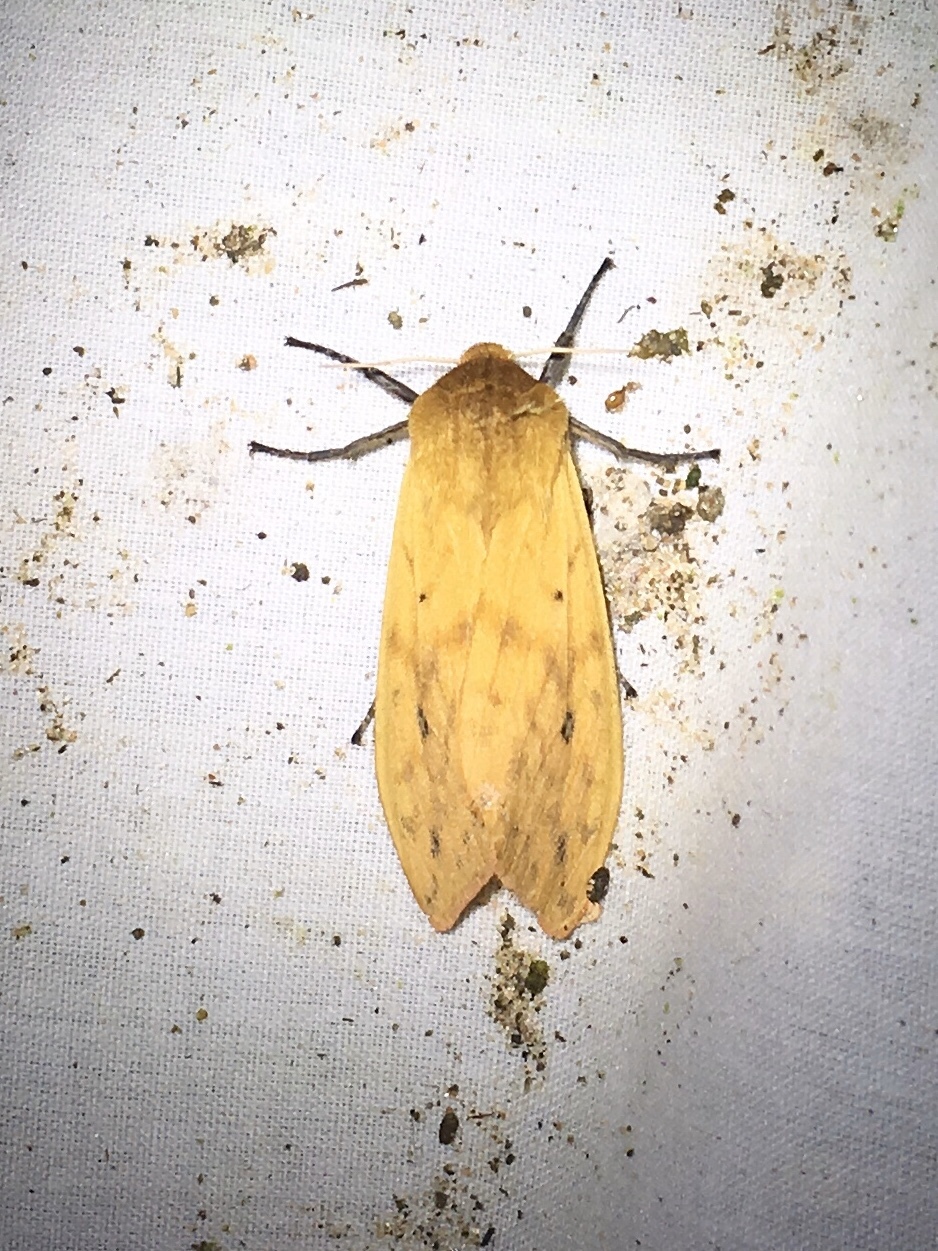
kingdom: Animalia
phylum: Arthropoda
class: Insecta
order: Lepidoptera
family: Erebidae
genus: Pyrrharctia
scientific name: Pyrrharctia isabella
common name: Isabella tiger moth
